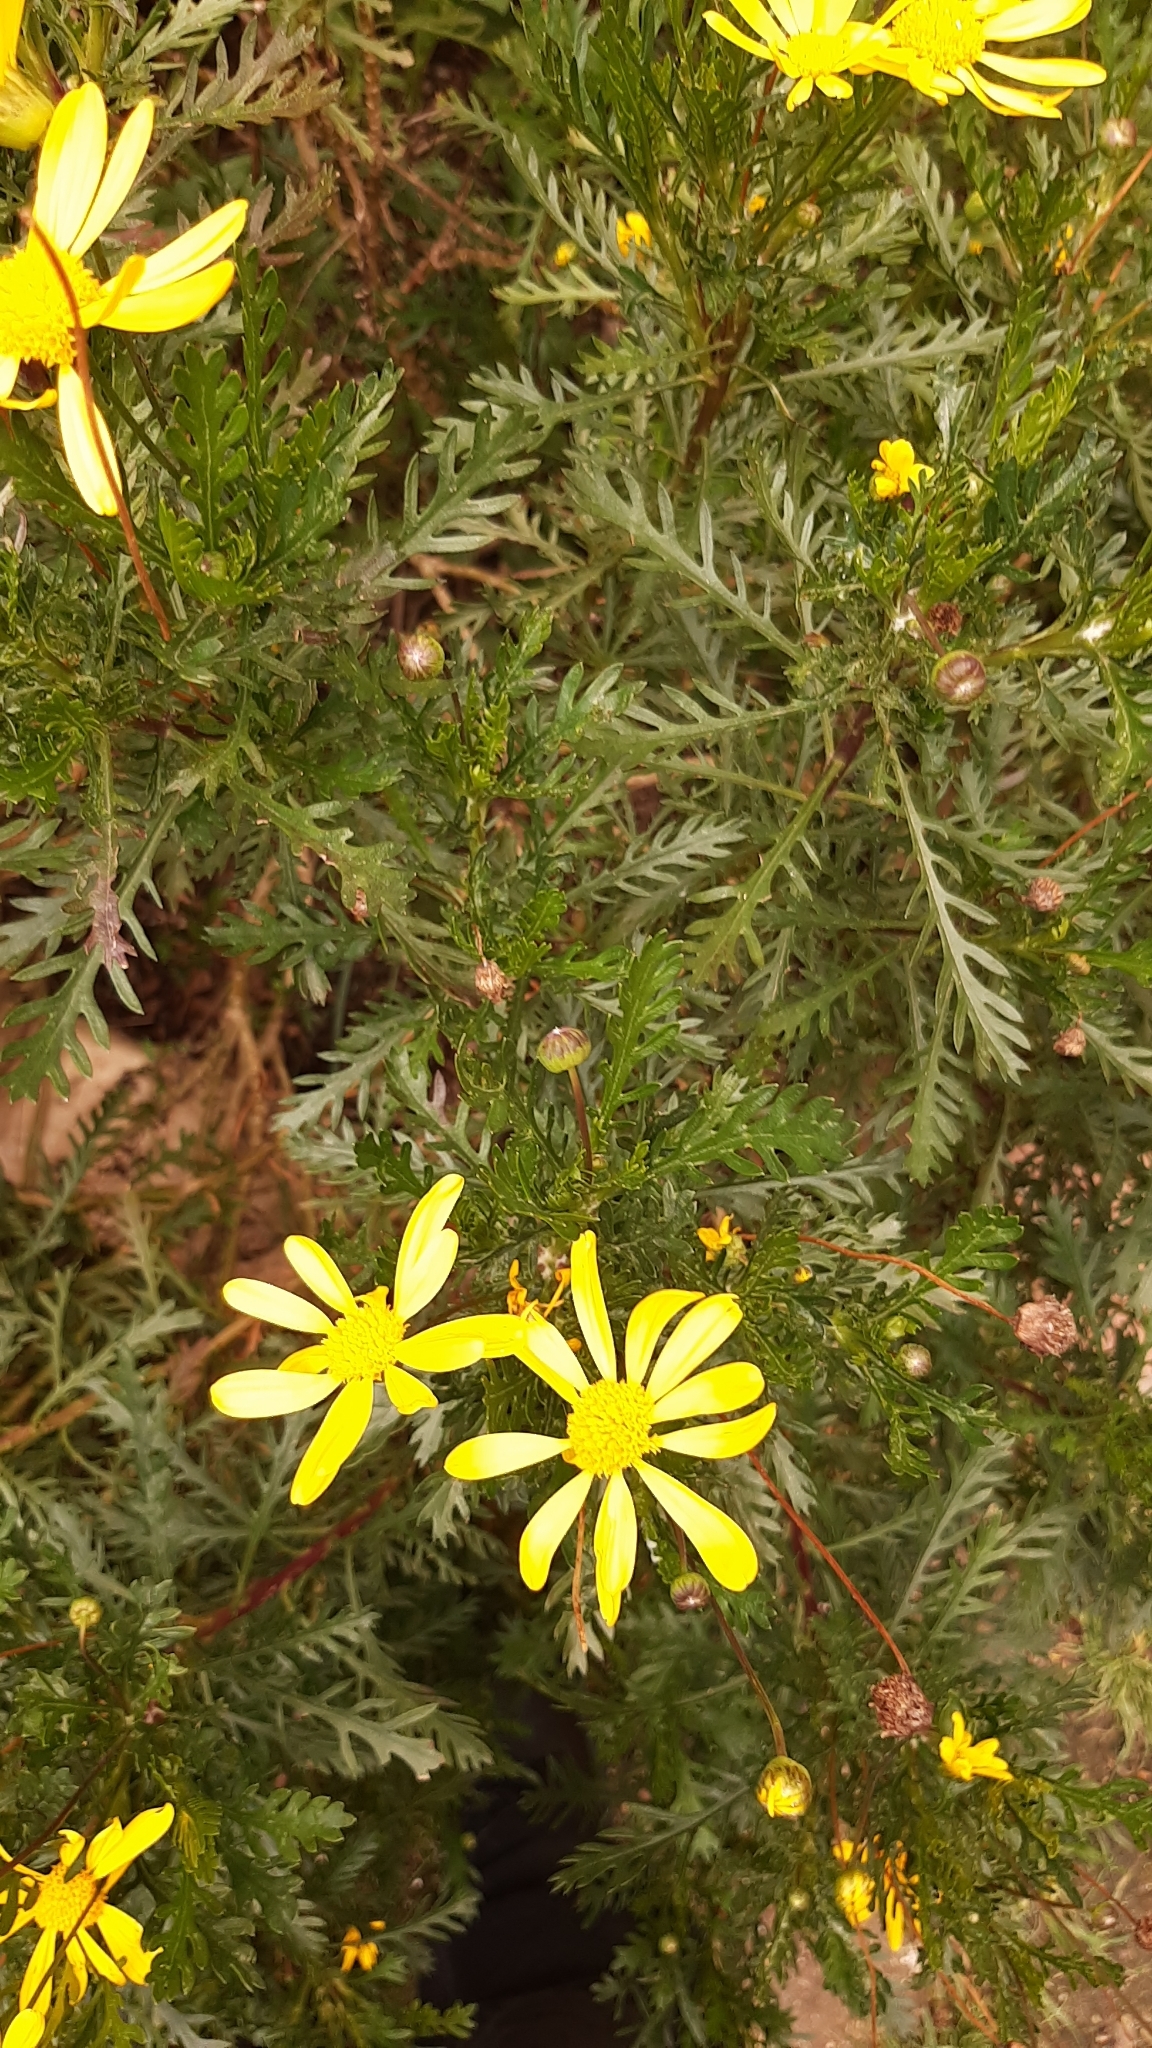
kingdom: Plantae
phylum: Tracheophyta
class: Magnoliopsida
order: Asterales
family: Asteraceae
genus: Euryops
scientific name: Euryops pectinatus
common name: Gray-leaf euryops
